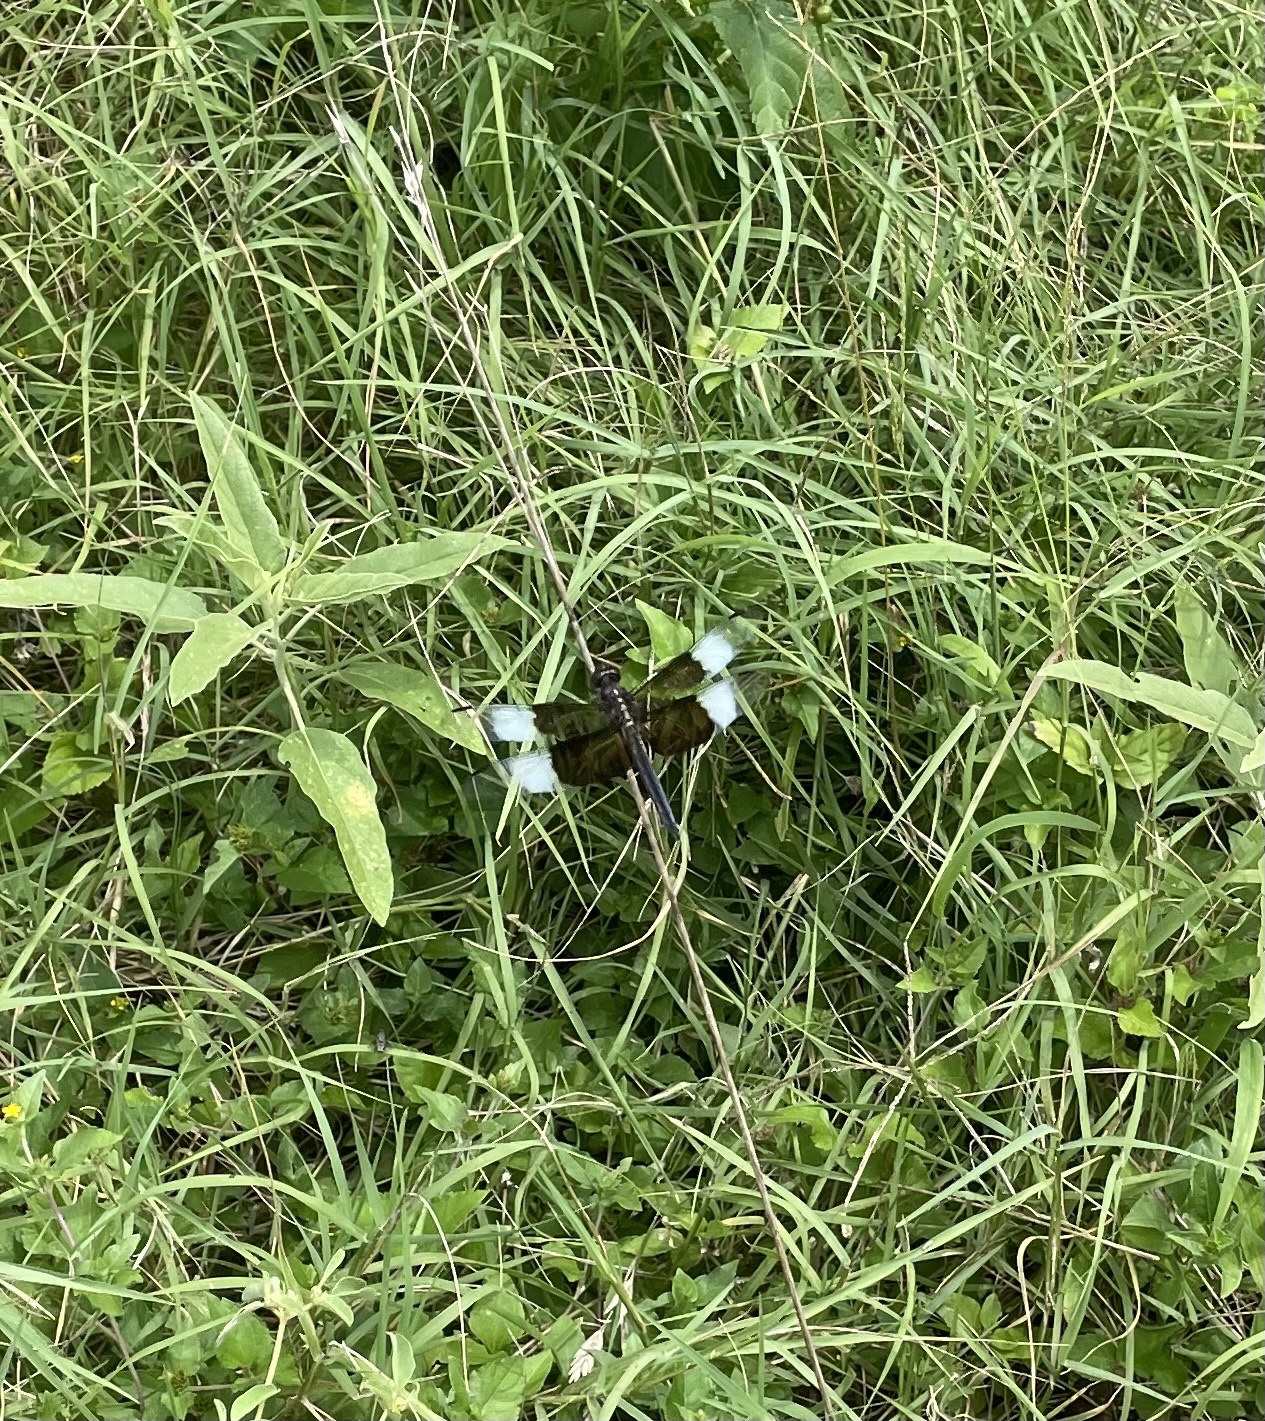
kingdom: Animalia
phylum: Arthropoda
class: Insecta
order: Odonata
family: Libellulidae
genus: Libellula
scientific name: Libellula luctuosa
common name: Widow skimmer
